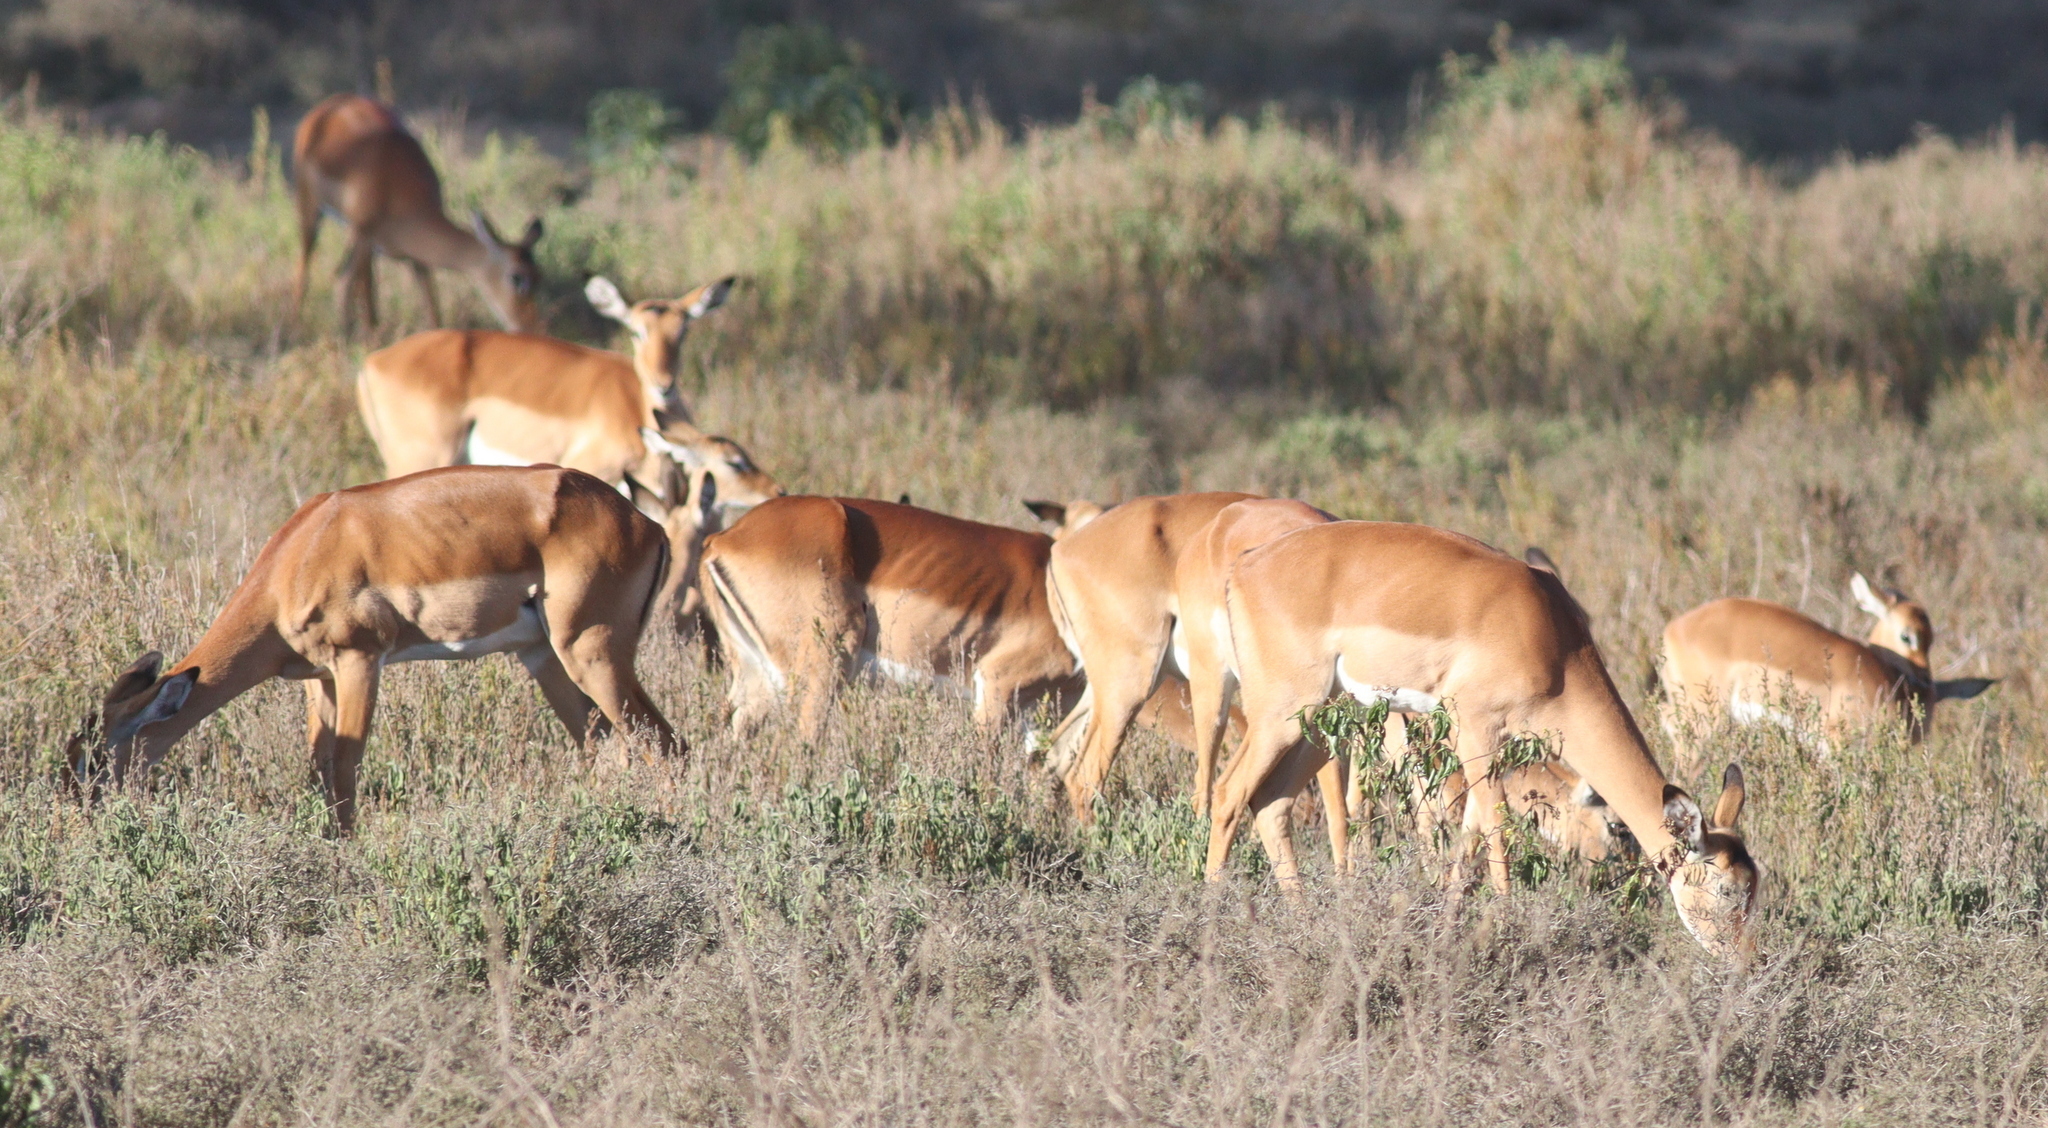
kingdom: Animalia
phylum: Chordata
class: Mammalia
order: Artiodactyla
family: Bovidae
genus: Aepyceros
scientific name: Aepyceros melampus
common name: Impala
